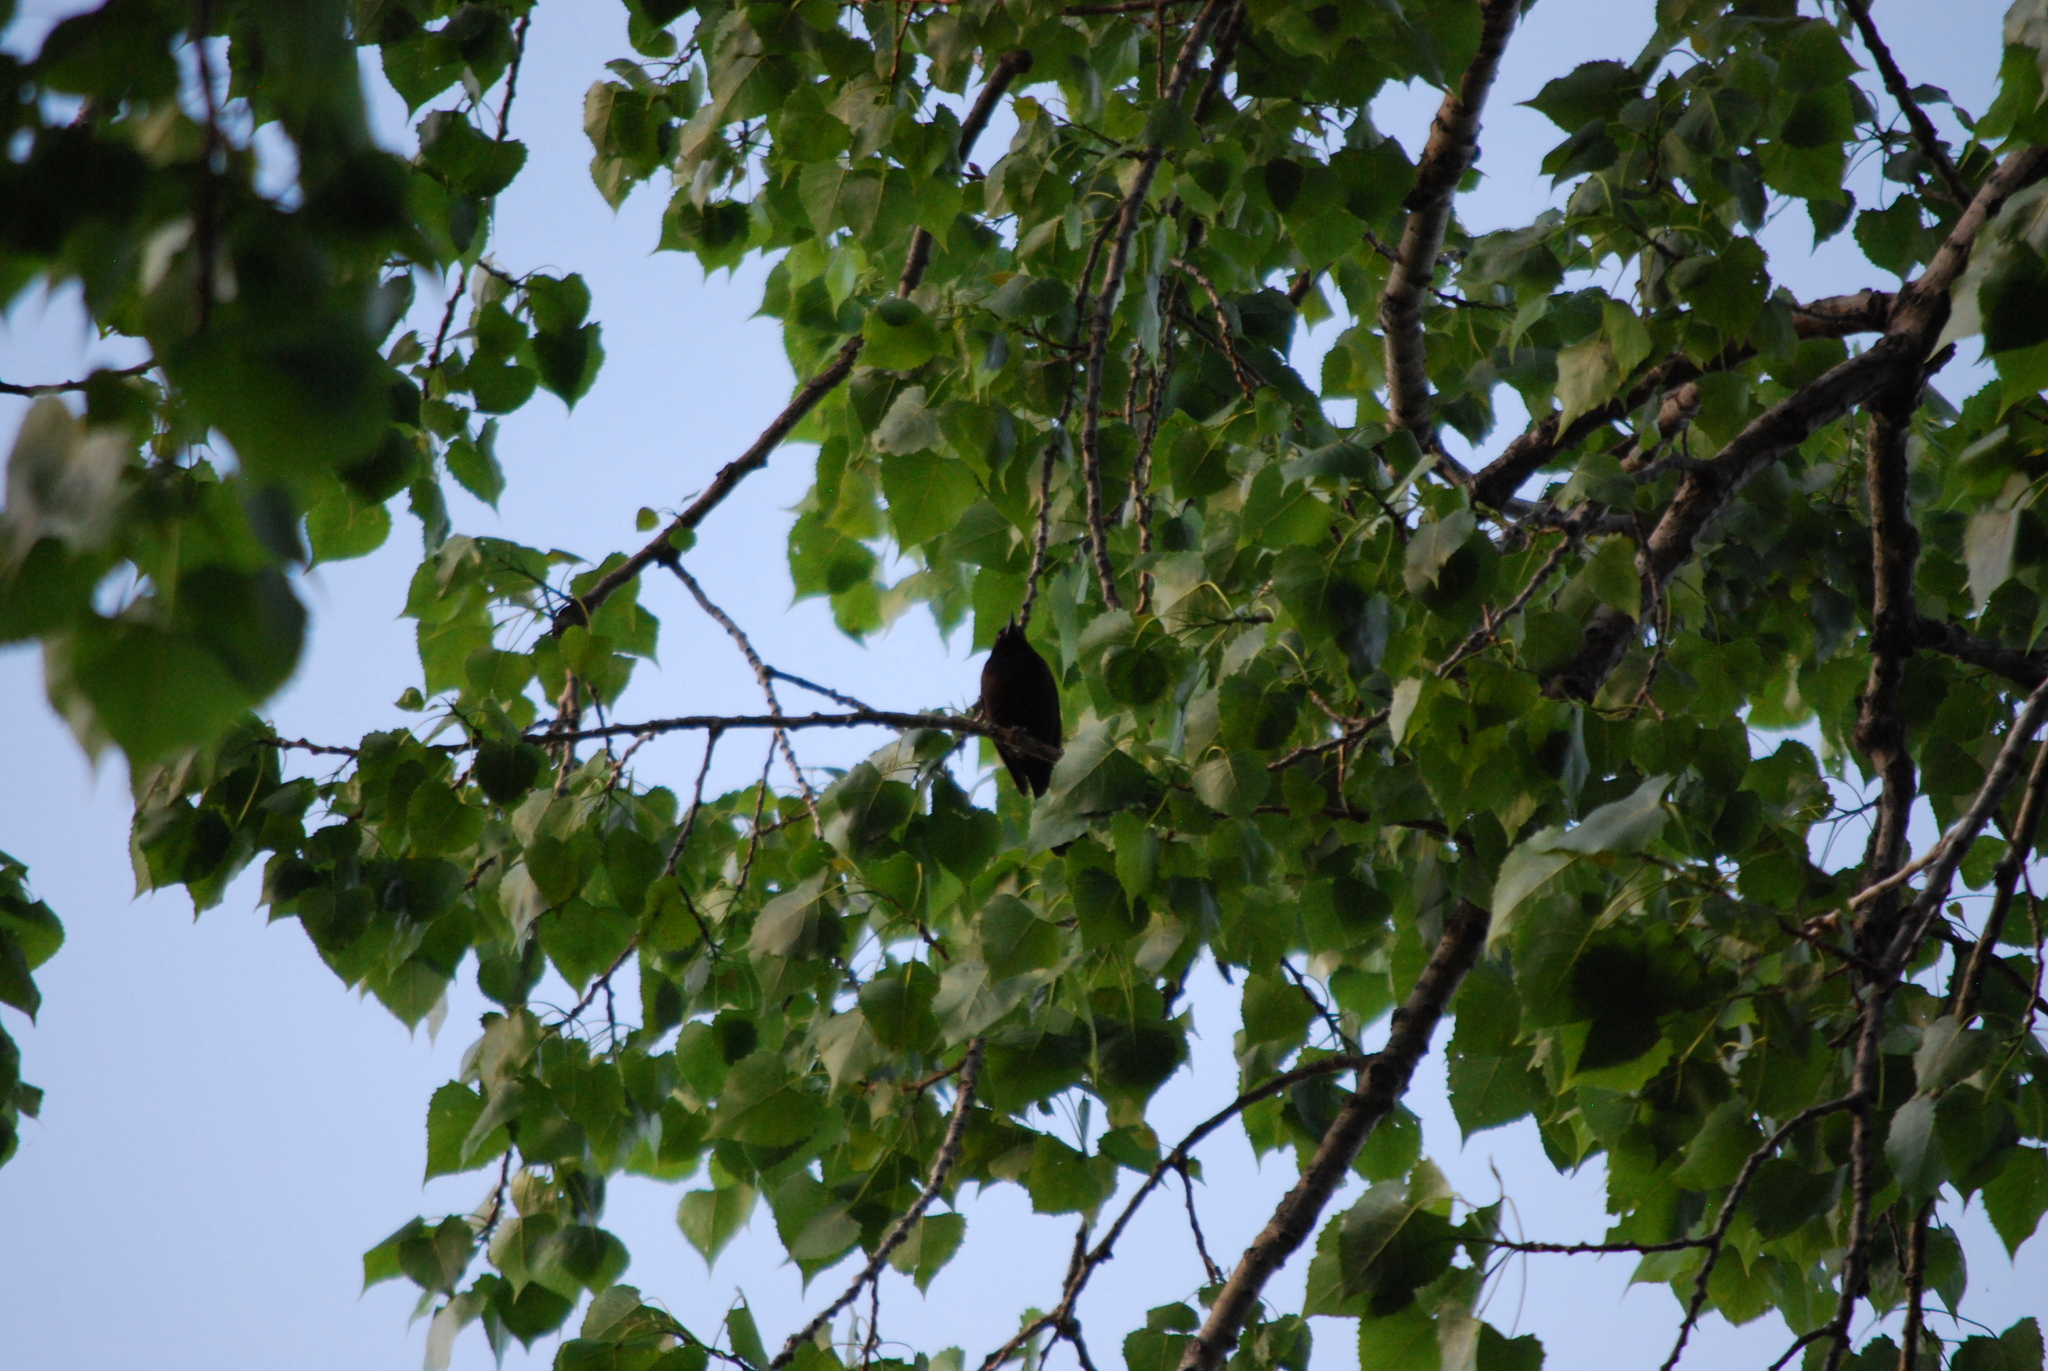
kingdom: Animalia
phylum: Chordata
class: Aves
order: Passeriformes
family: Icteridae
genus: Icterus
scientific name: Icterus spurius
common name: Orchard oriole
